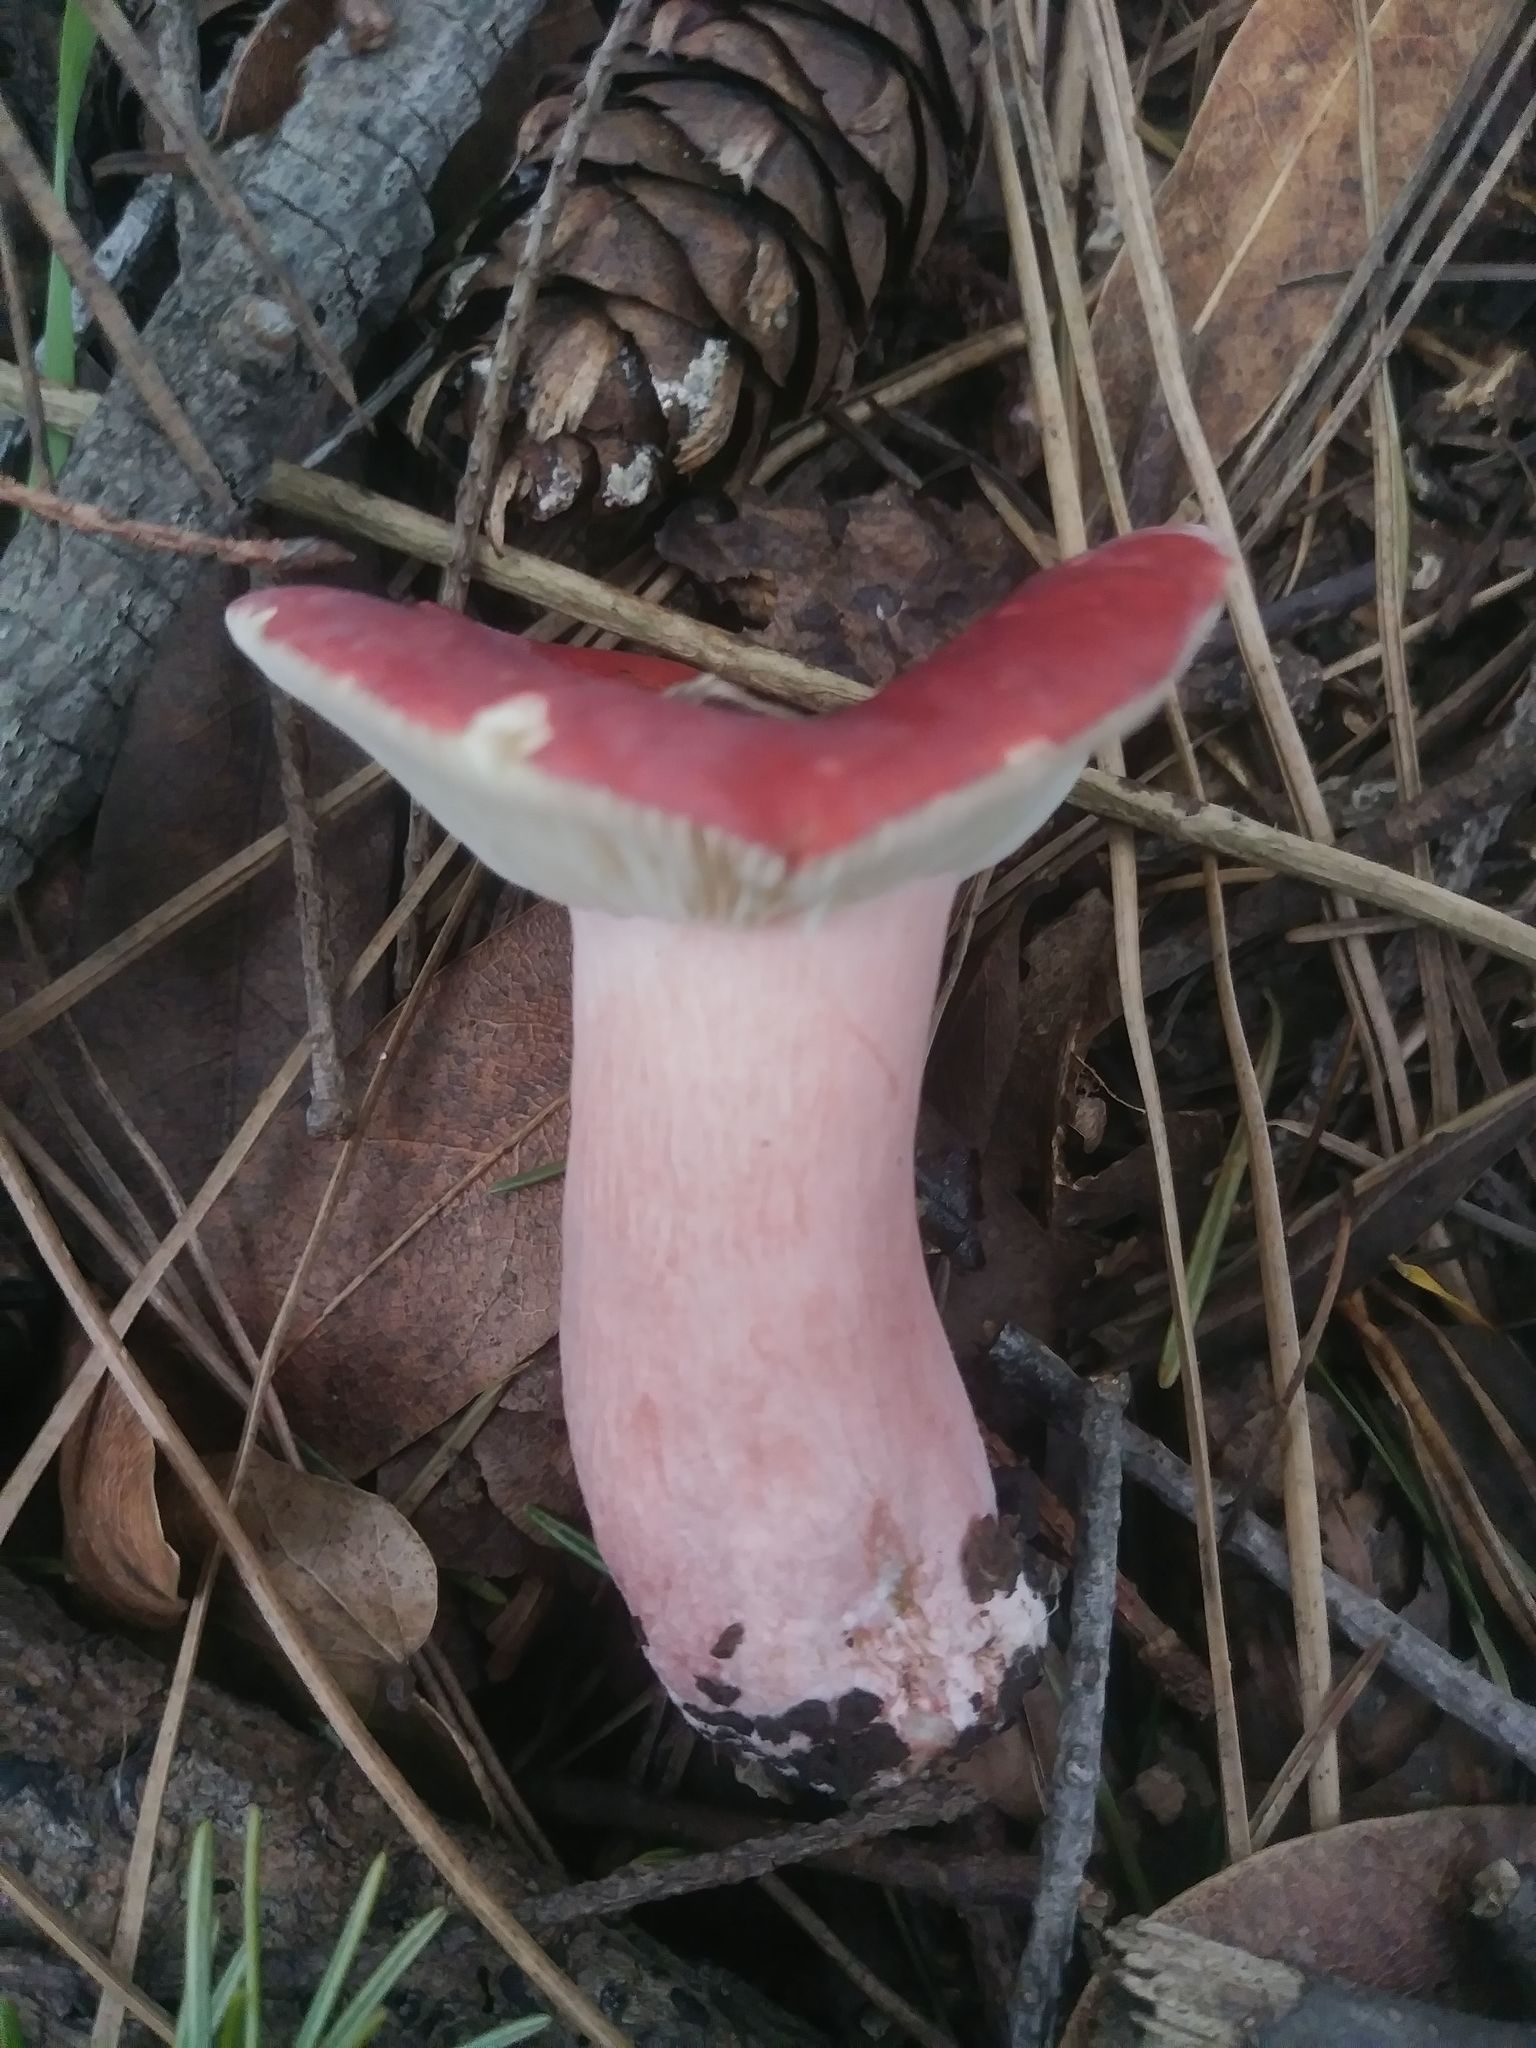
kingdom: Fungi
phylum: Basidiomycota
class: Agaricomycetes
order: Russulales
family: Russulaceae
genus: Russula
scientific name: Russula rhodocephala
